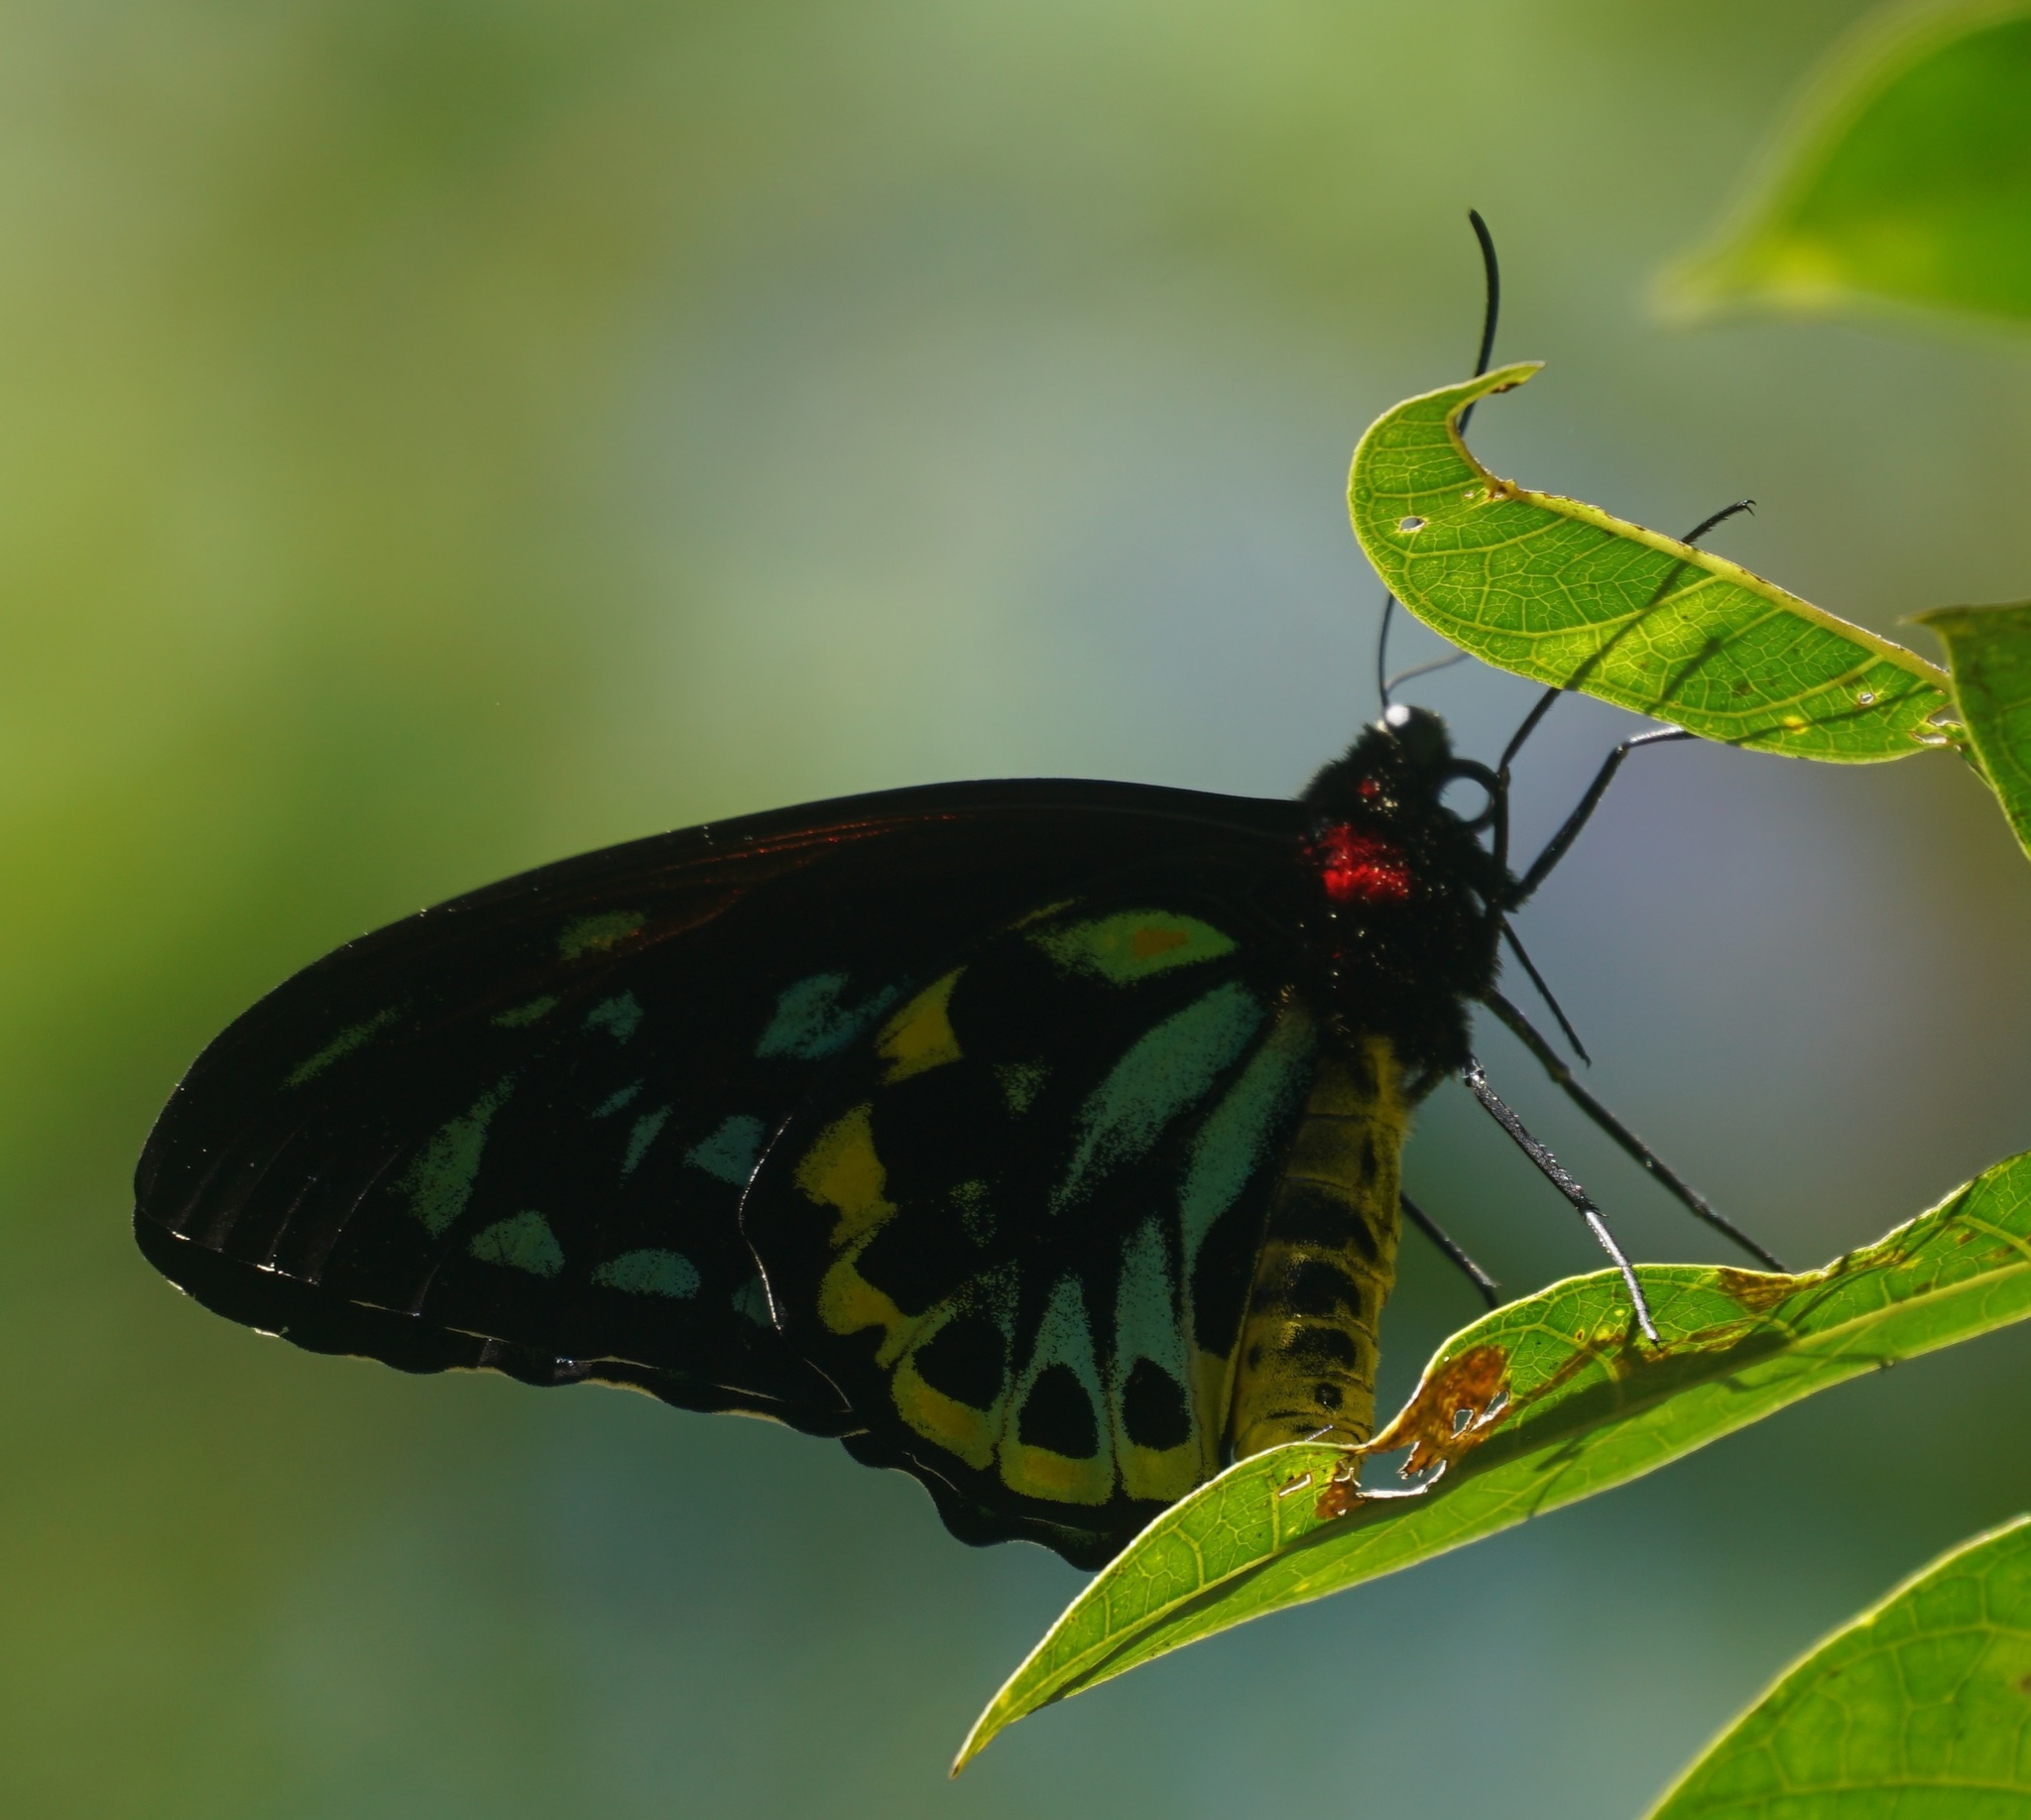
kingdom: Animalia
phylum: Arthropoda
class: Insecta
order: Lepidoptera
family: Papilionidae
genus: Ornithoptera
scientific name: Ornithoptera euphorion
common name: Cairns birdwing
